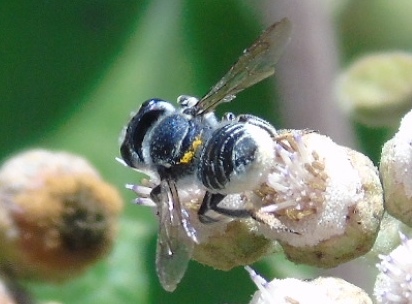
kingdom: Animalia
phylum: Arthropoda
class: Insecta
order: Hymenoptera
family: Megachilidae
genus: Megachile
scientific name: Megachile
